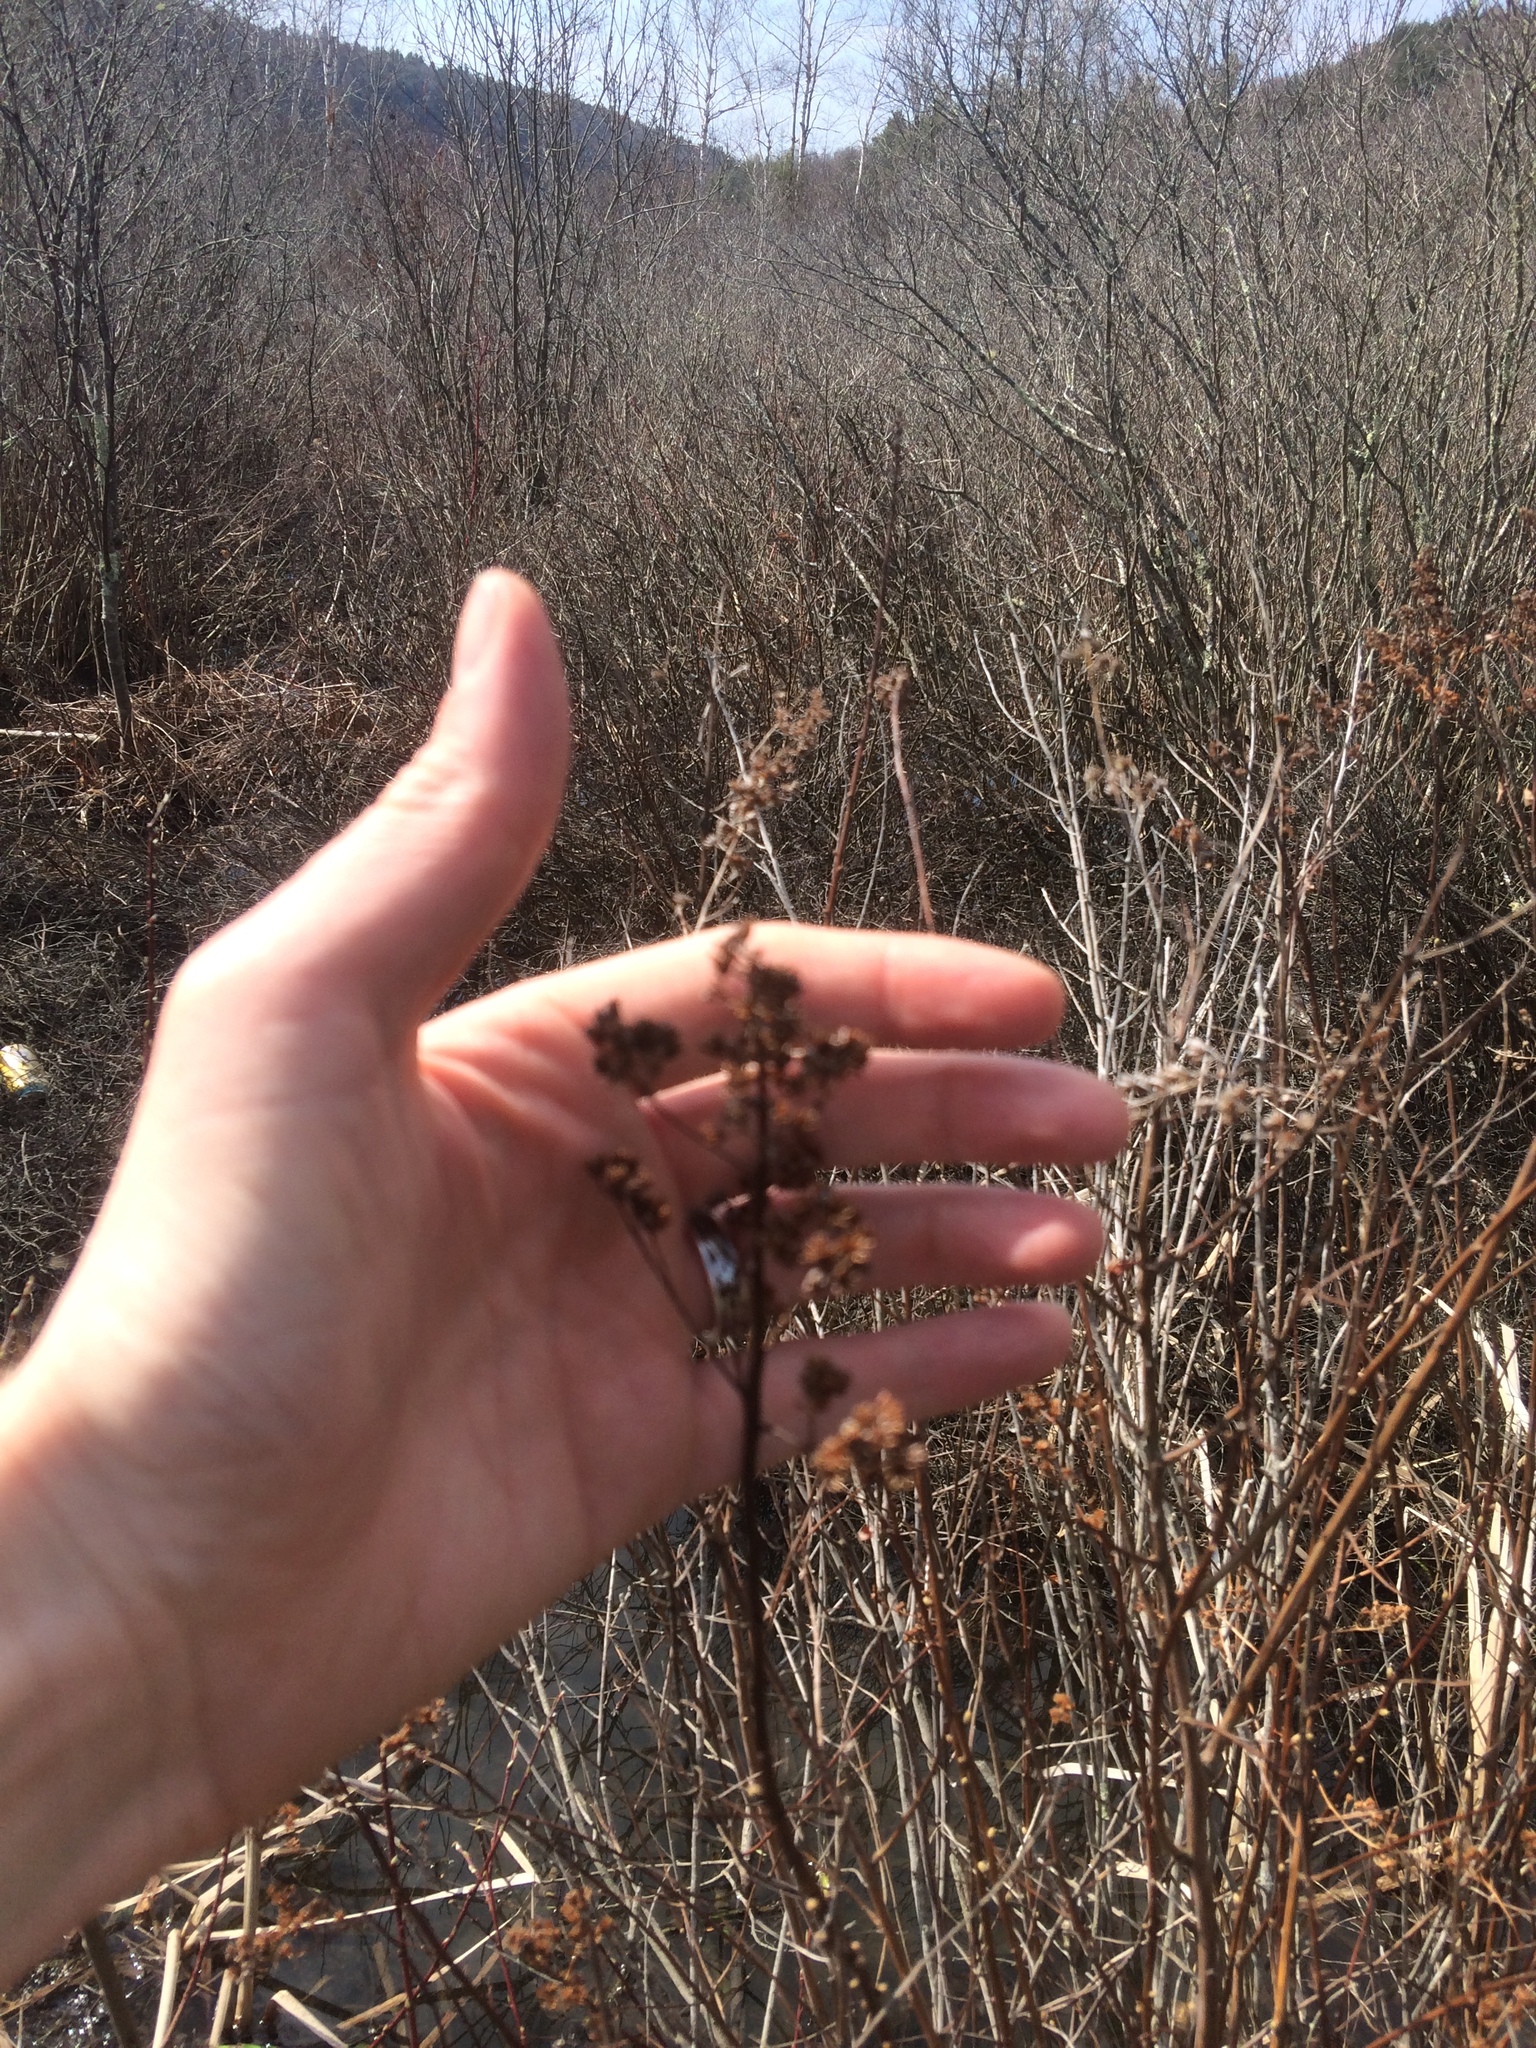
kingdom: Plantae
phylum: Tracheophyta
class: Magnoliopsida
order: Rosales
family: Rosaceae
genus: Spiraea
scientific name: Spiraea alba
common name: Pale bridewort
